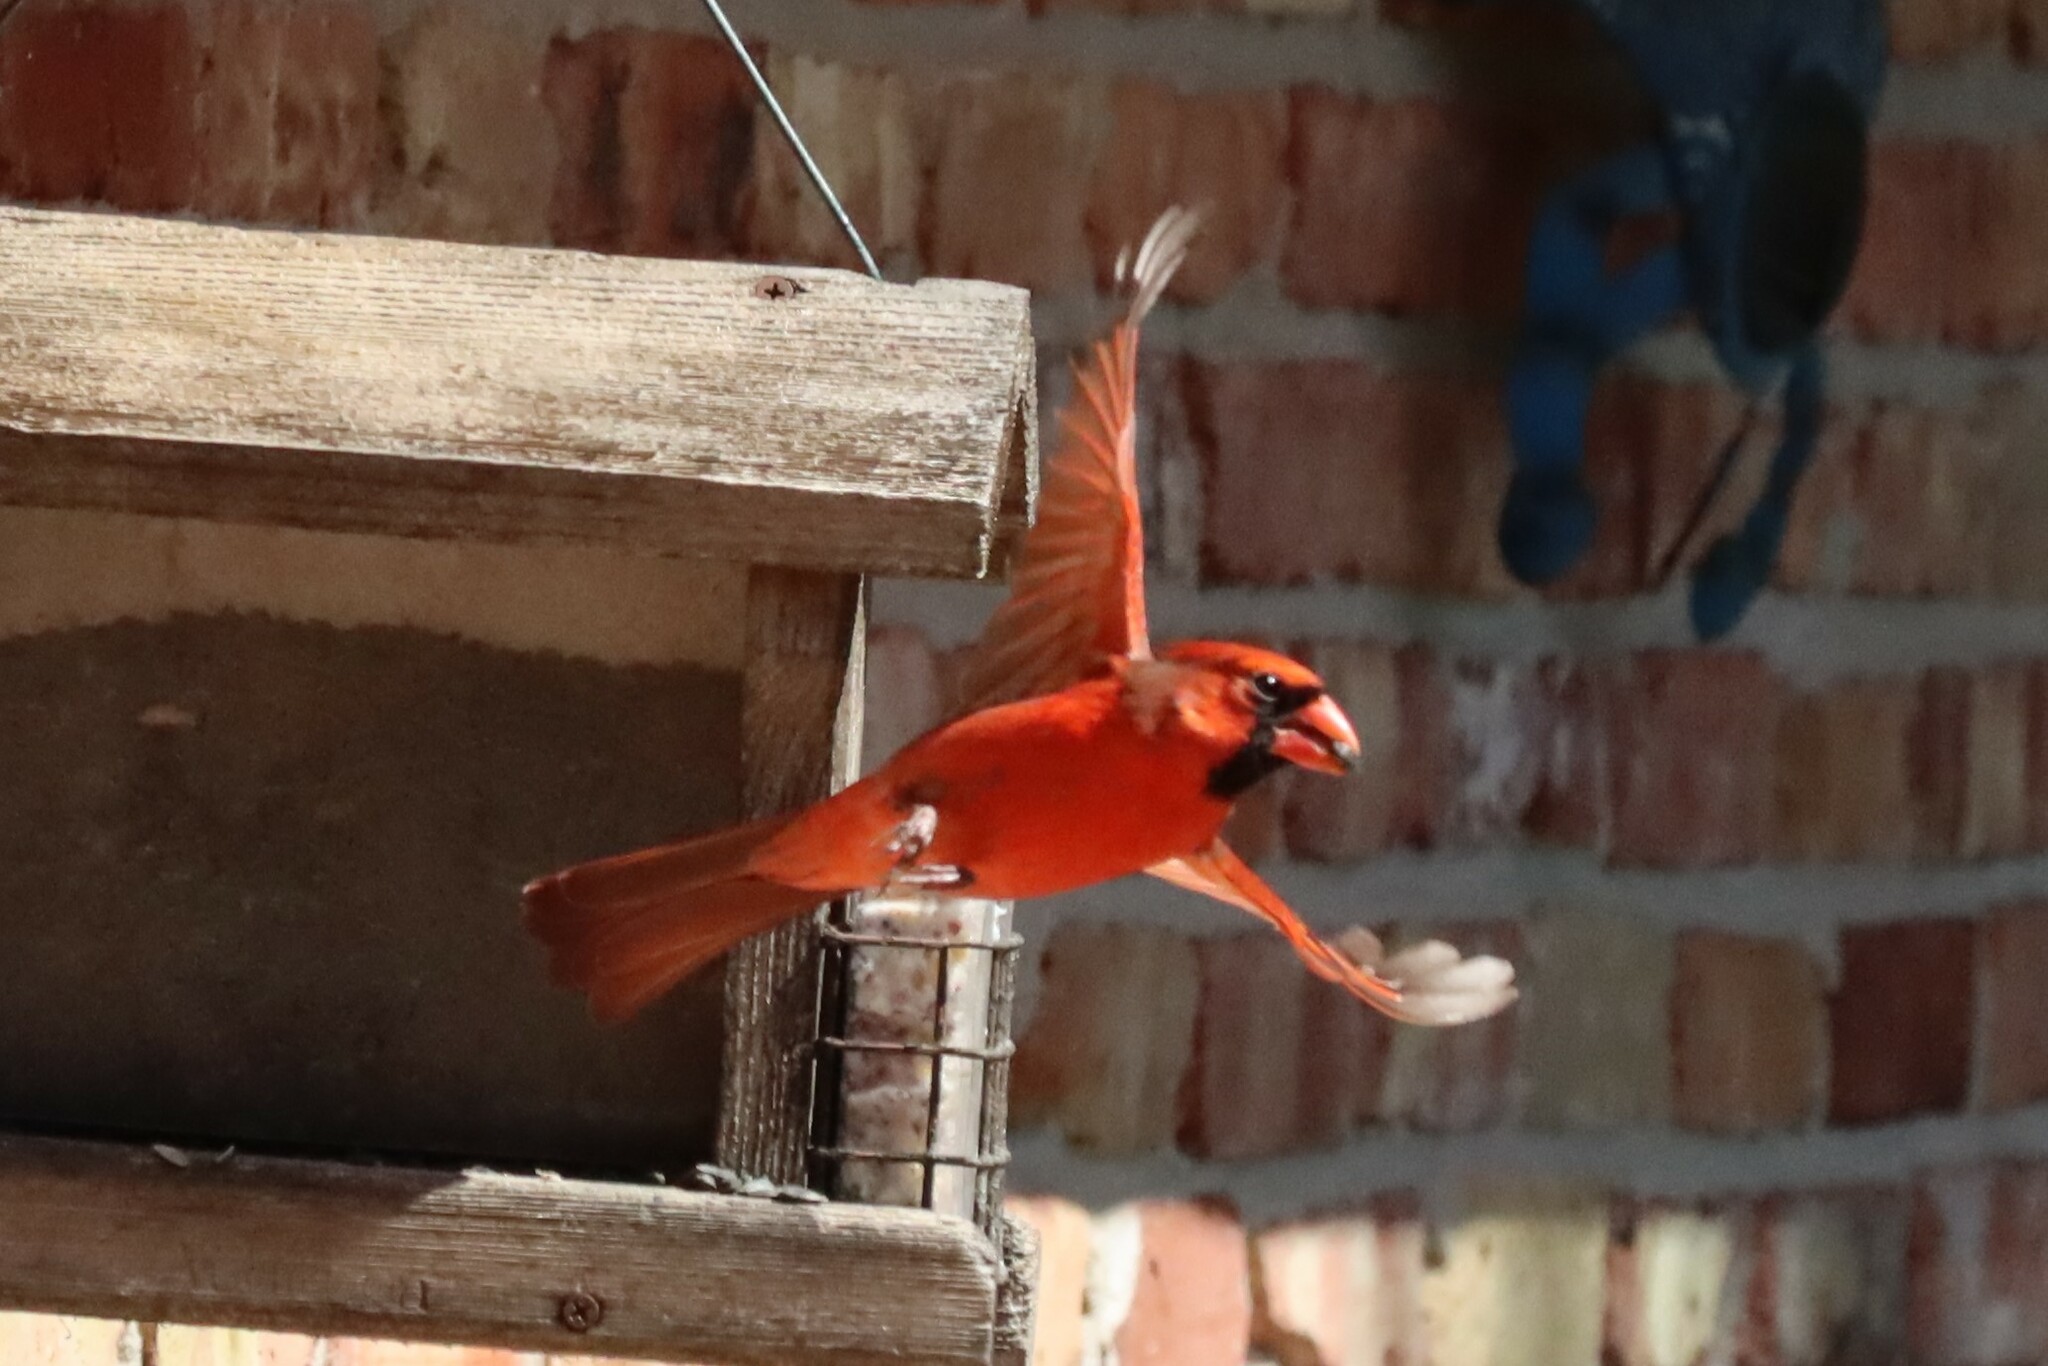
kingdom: Animalia
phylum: Chordata
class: Aves
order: Passeriformes
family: Cardinalidae
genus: Cardinalis
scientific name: Cardinalis cardinalis
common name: Northern cardinal
